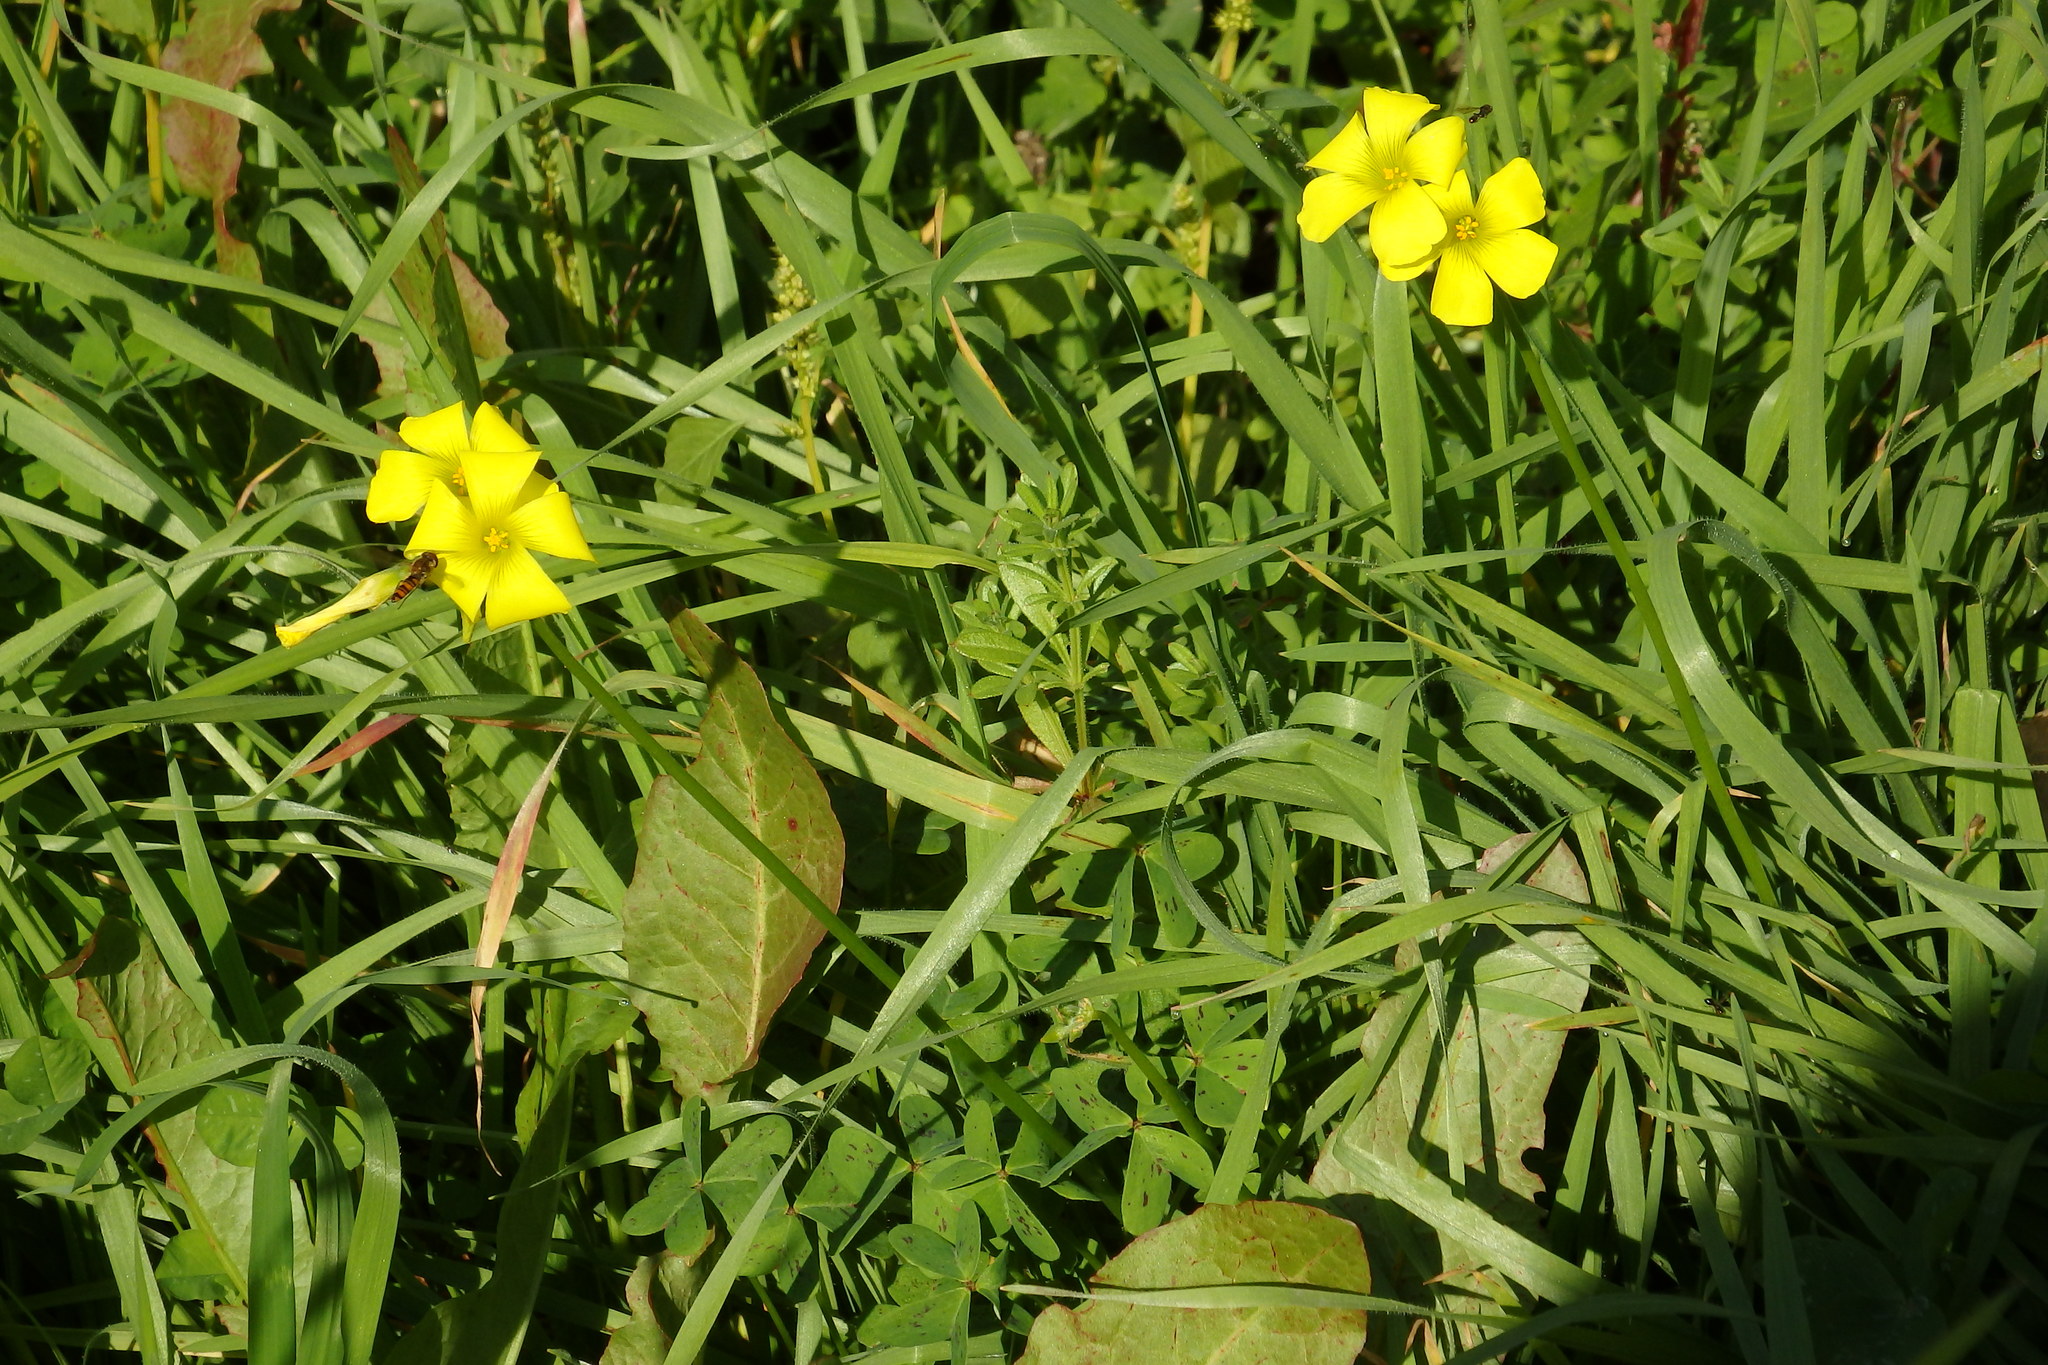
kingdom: Plantae
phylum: Tracheophyta
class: Magnoliopsida
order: Oxalidales
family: Oxalidaceae
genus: Oxalis
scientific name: Oxalis pes-caprae
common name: Bermuda-buttercup
